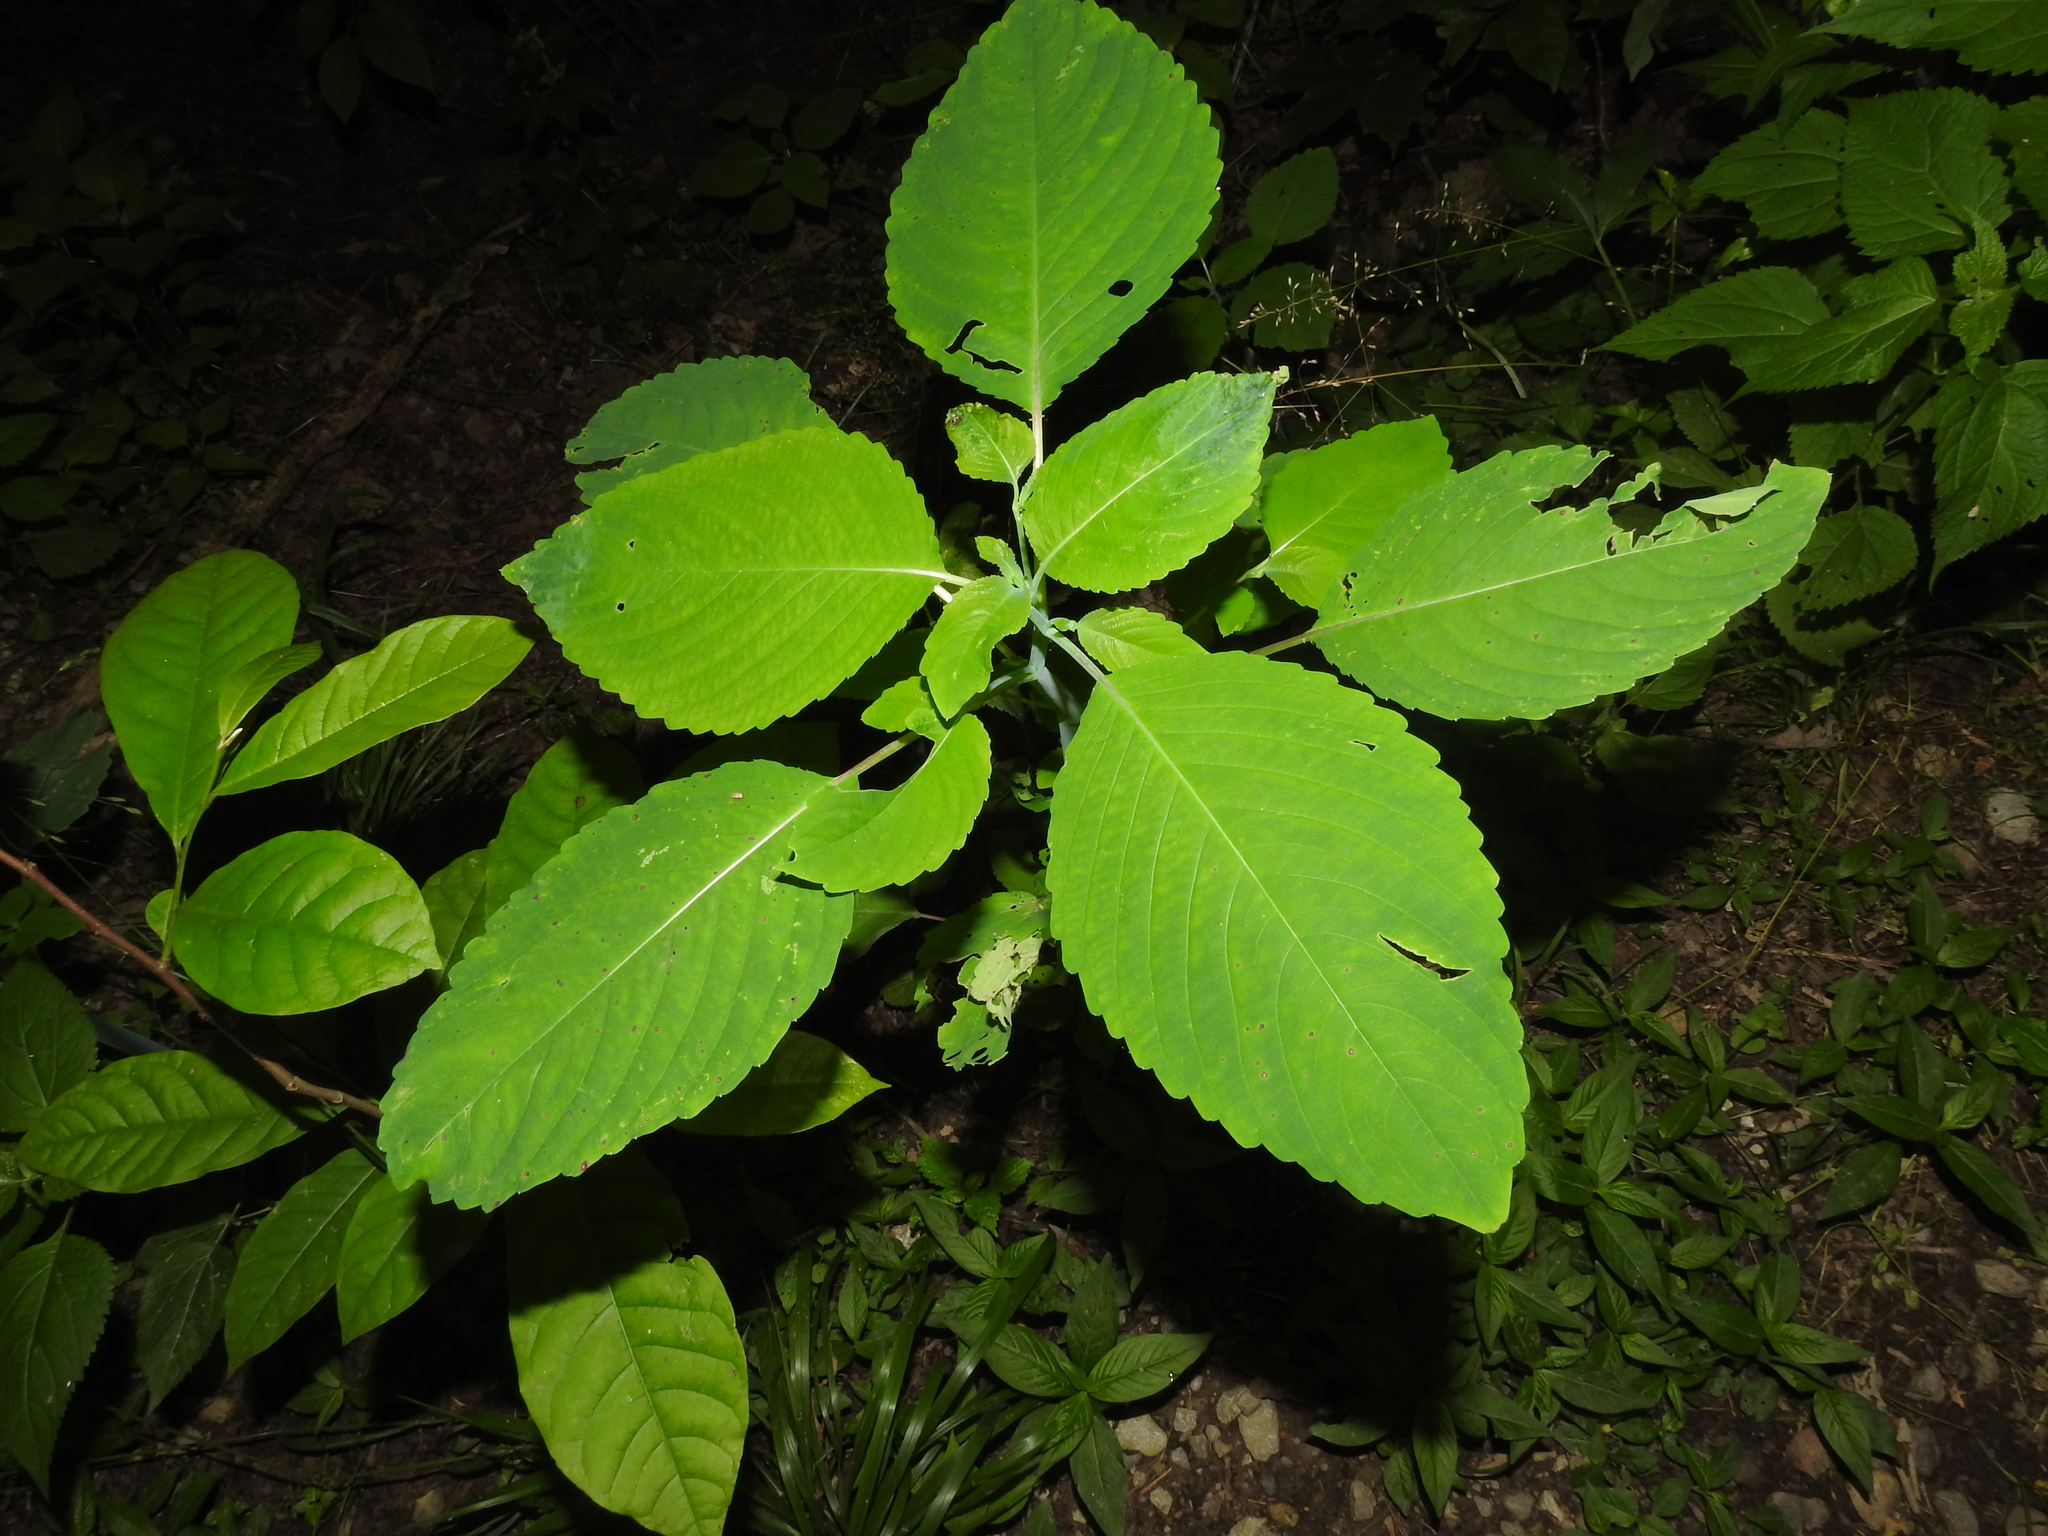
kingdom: Plantae
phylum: Tracheophyta
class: Magnoliopsida
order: Ericales
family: Balsaminaceae
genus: Impatiens
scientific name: Impatiens pallida
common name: Pale snapweed
